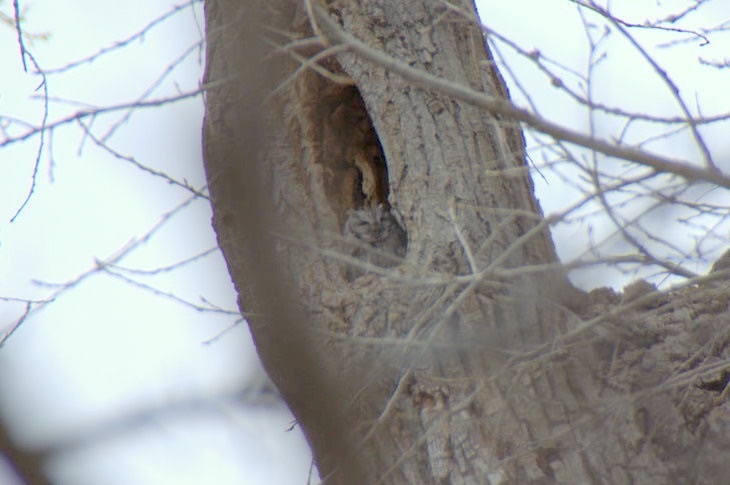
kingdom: Animalia
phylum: Chordata
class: Aves
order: Strigiformes
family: Strigidae
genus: Megascops
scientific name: Megascops kennicottii
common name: Western screech-owl
